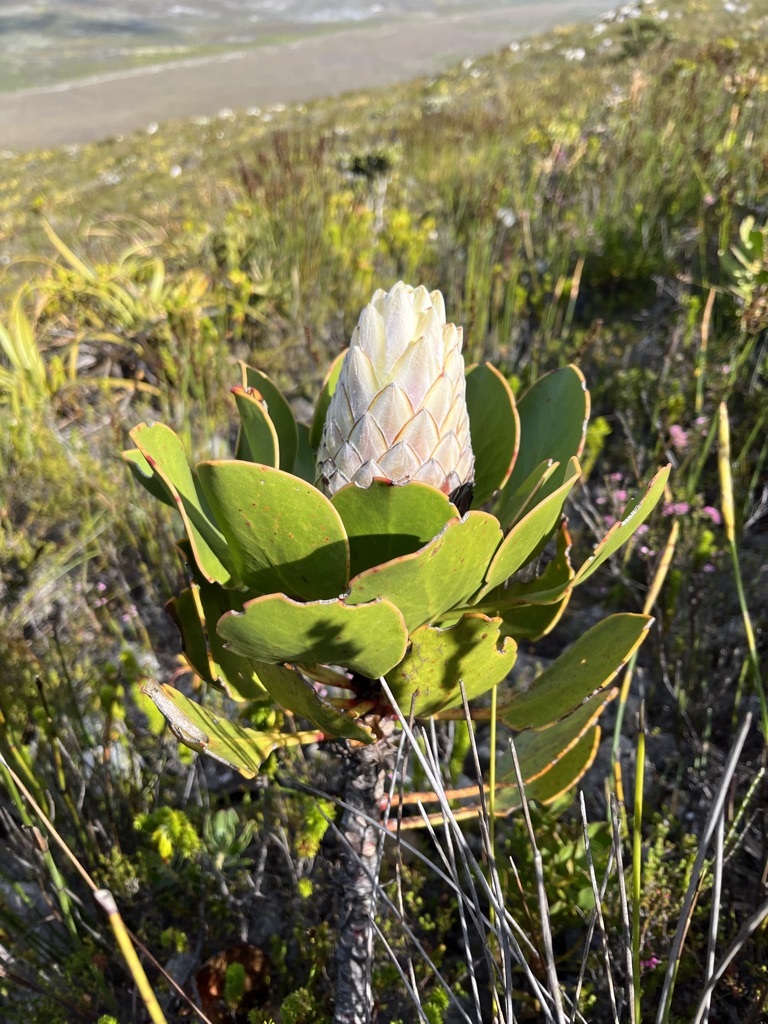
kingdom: Plantae
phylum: Tracheophyta
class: Magnoliopsida
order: Proteales
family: Proteaceae
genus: Protea
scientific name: Protea cynaroides
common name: King protea
